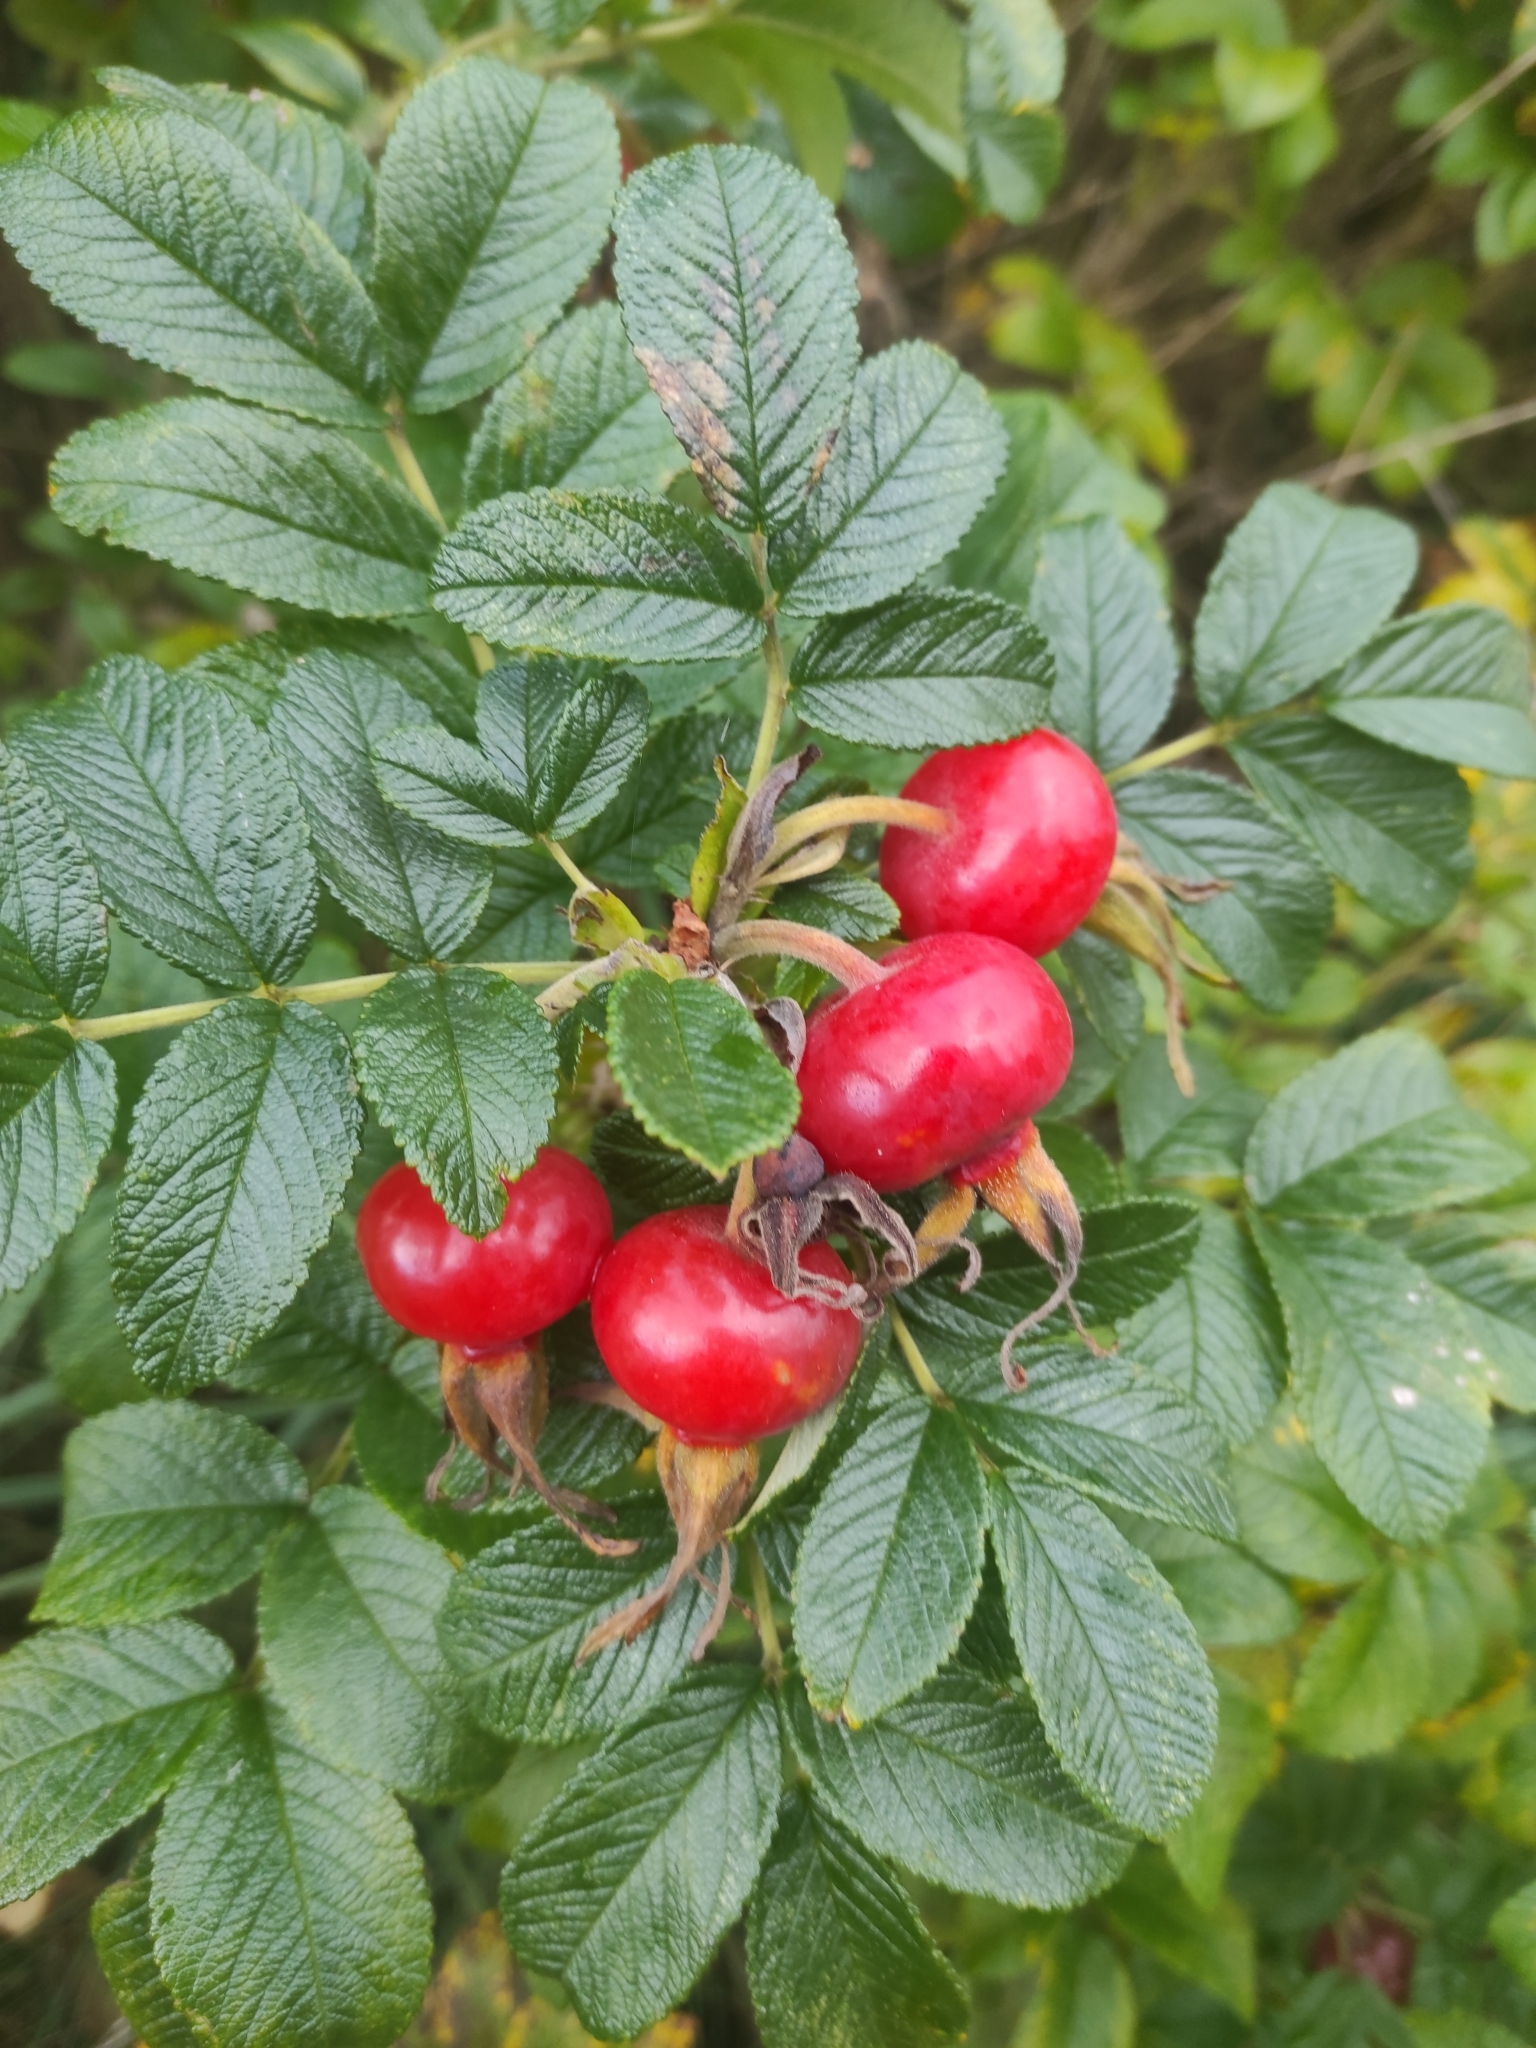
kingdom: Plantae
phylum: Tracheophyta
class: Magnoliopsida
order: Rosales
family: Rosaceae
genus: Rosa
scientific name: Rosa rugosa
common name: Japanese rose
